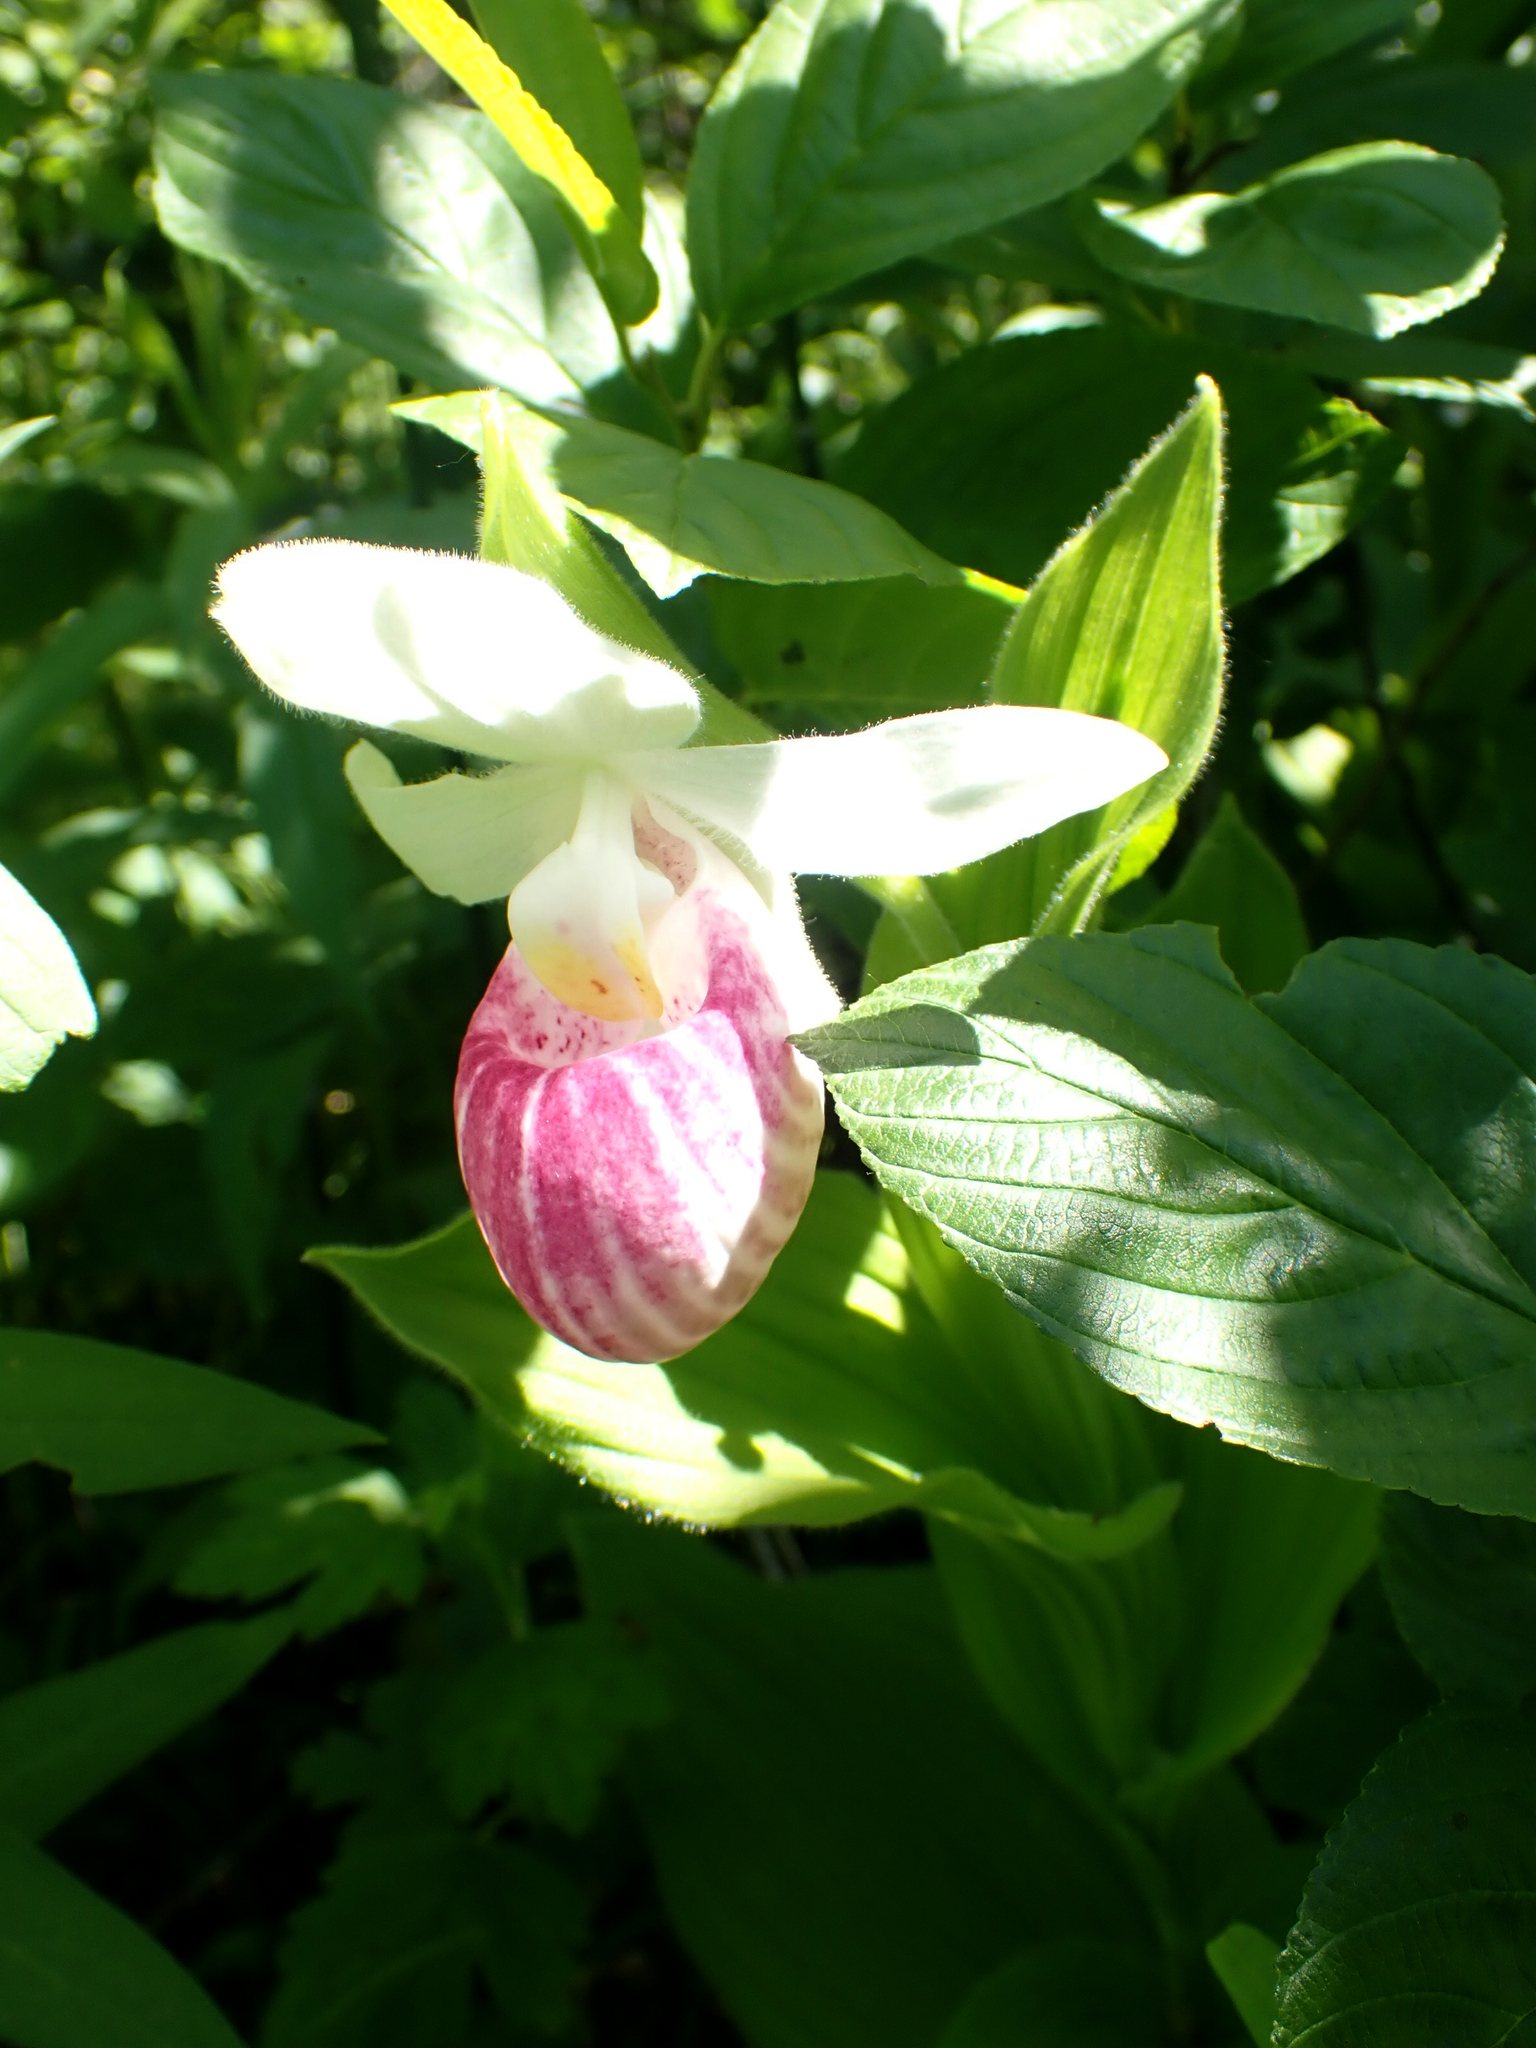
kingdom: Plantae
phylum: Tracheophyta
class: Liliopsida
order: Asparagales
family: Orchidaceae
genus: Cypripedium
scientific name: Cypripedium reginae
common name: Queen lady's-slipper
